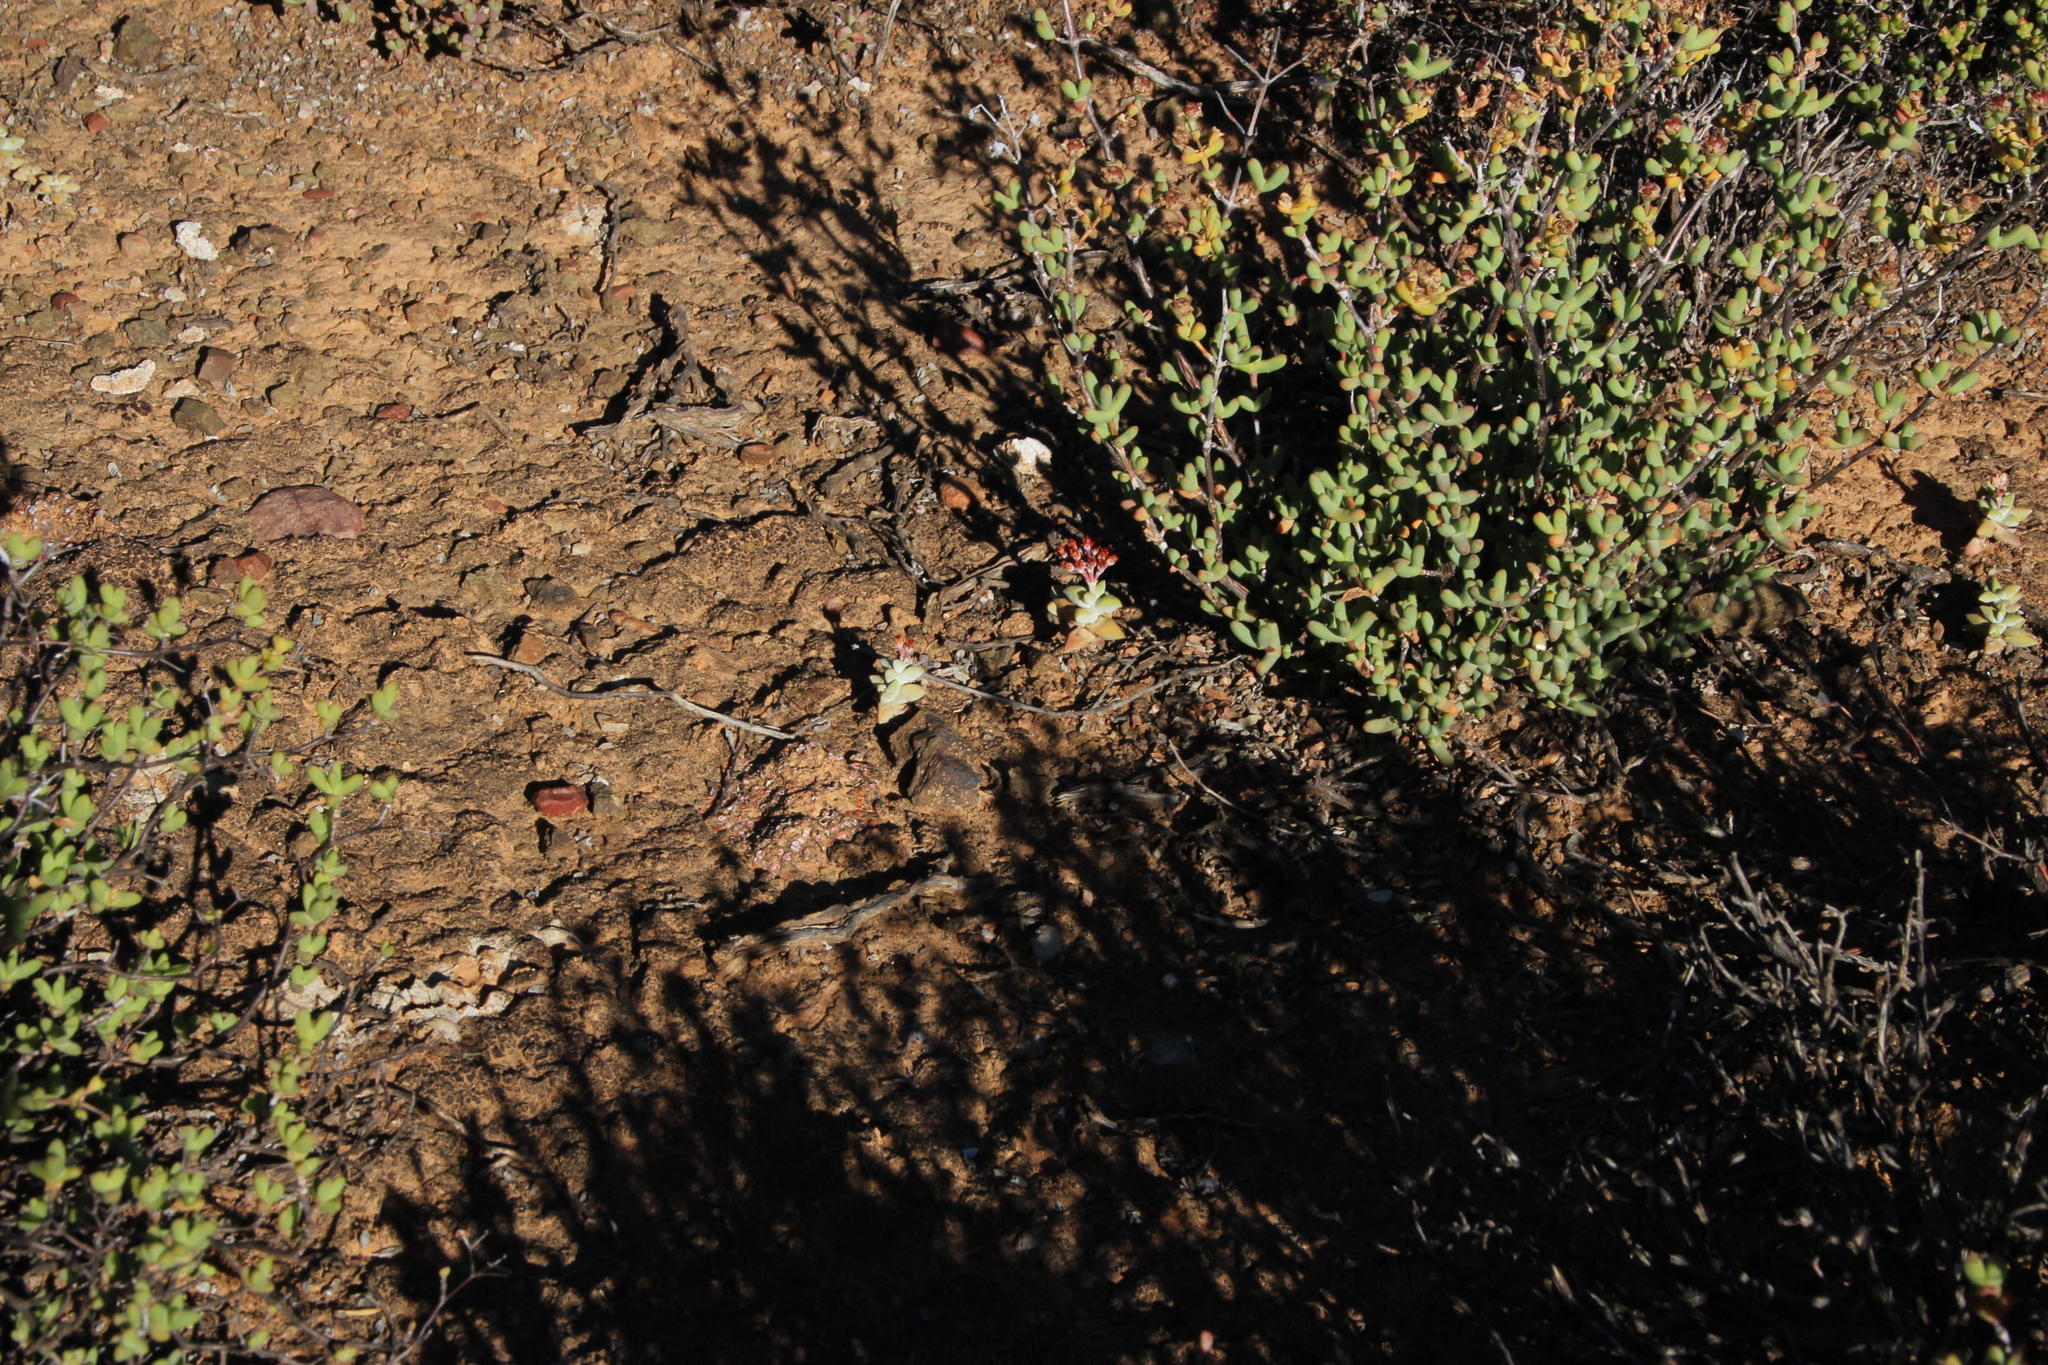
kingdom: Plantae
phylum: Tracheophyta
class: Magnoliopsida
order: Saxifragales
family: Crassulaceae
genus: Crassula
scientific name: Crassula deltoidea
